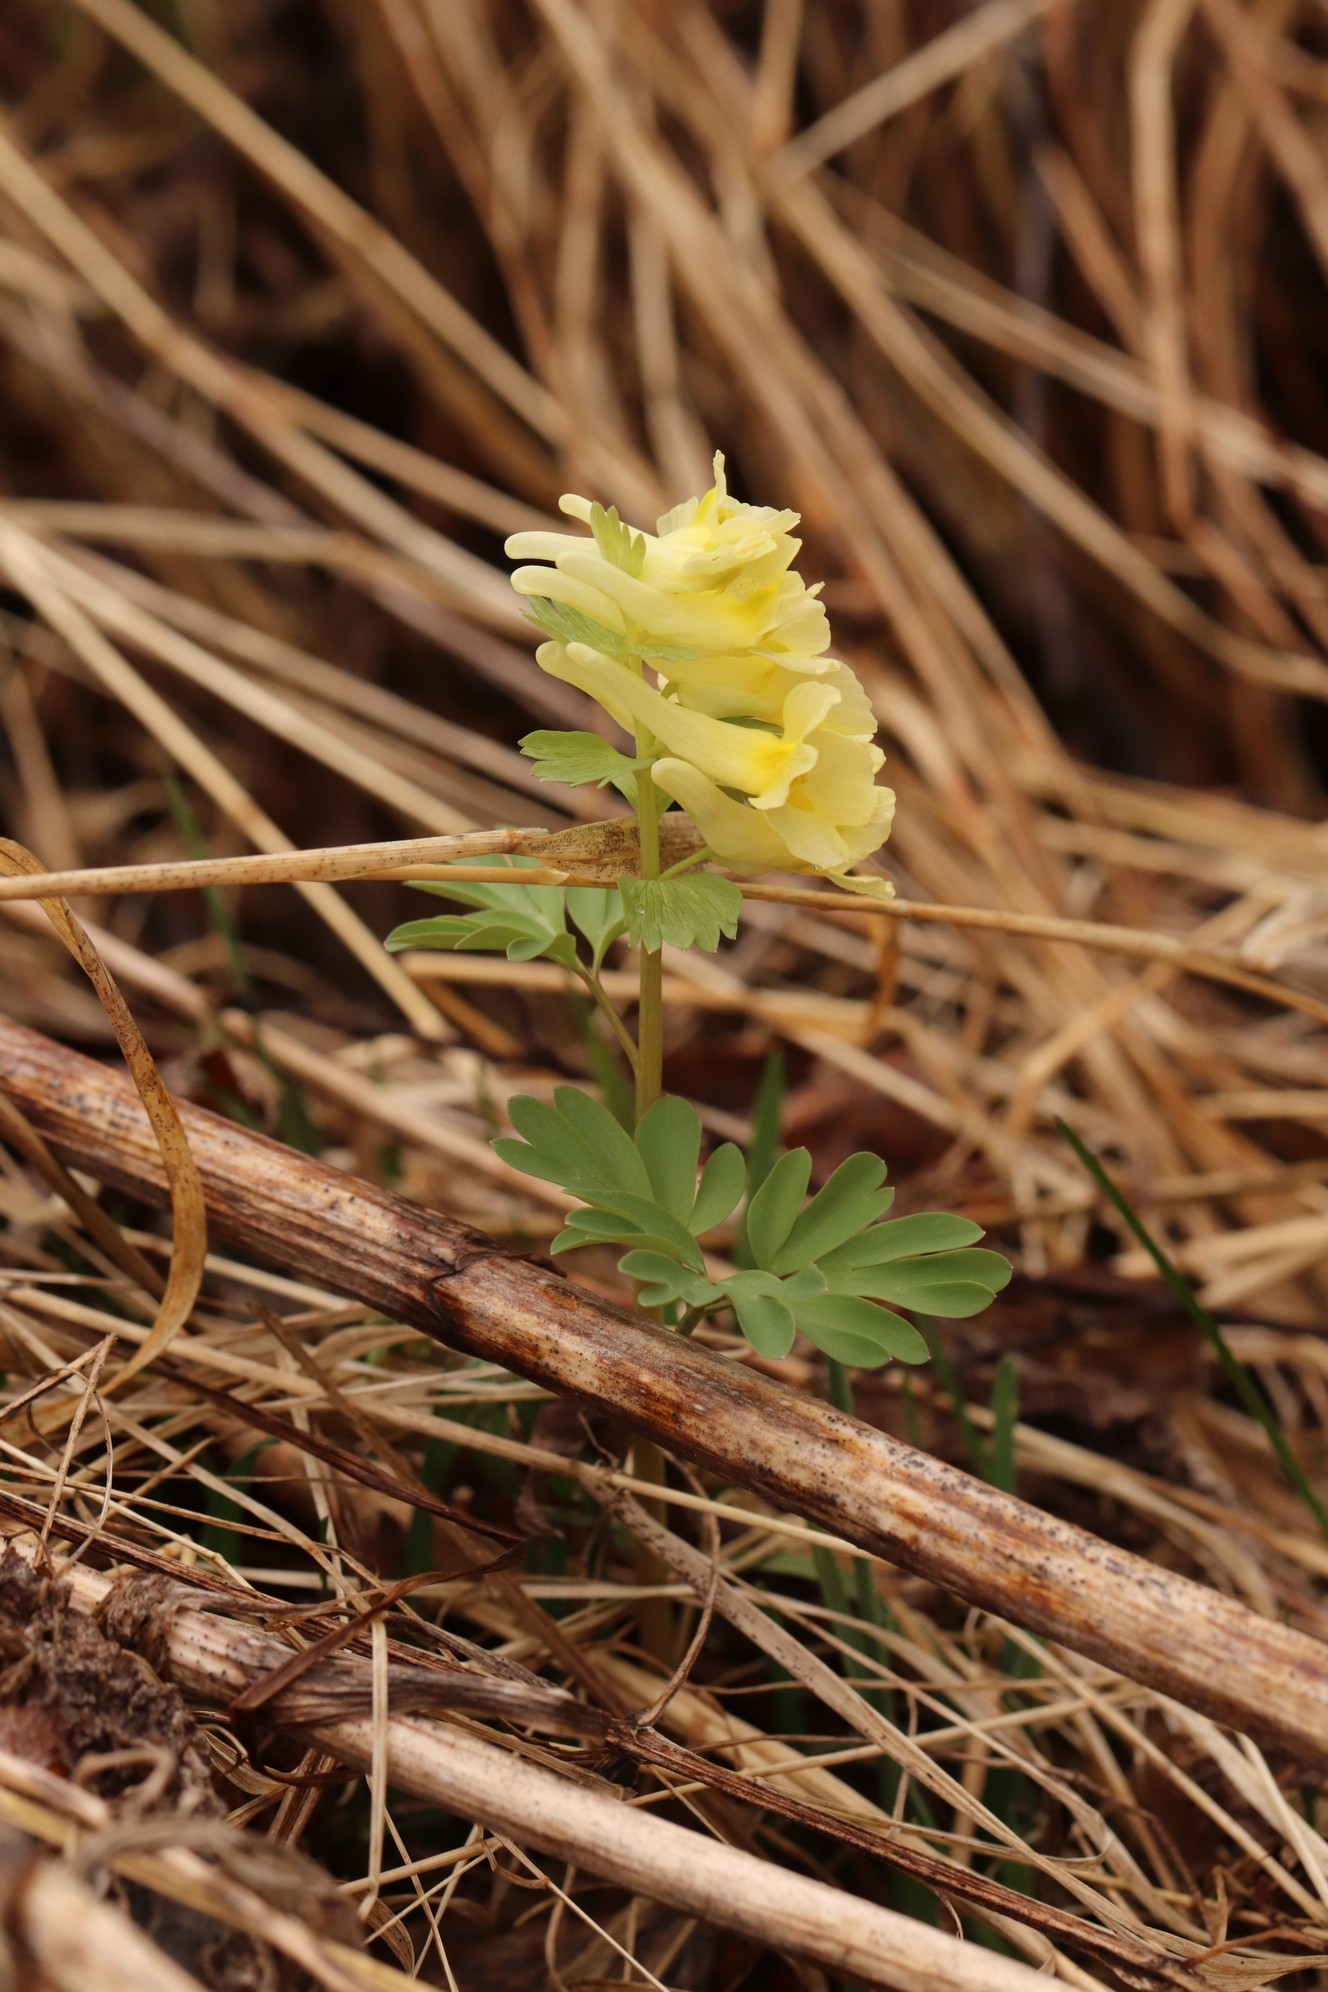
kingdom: Plantae
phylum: Tracheophyta
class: Magnoliopsida
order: Ranunculales
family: Papaveraceae
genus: Corydalis
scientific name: Corydalis bracteata
